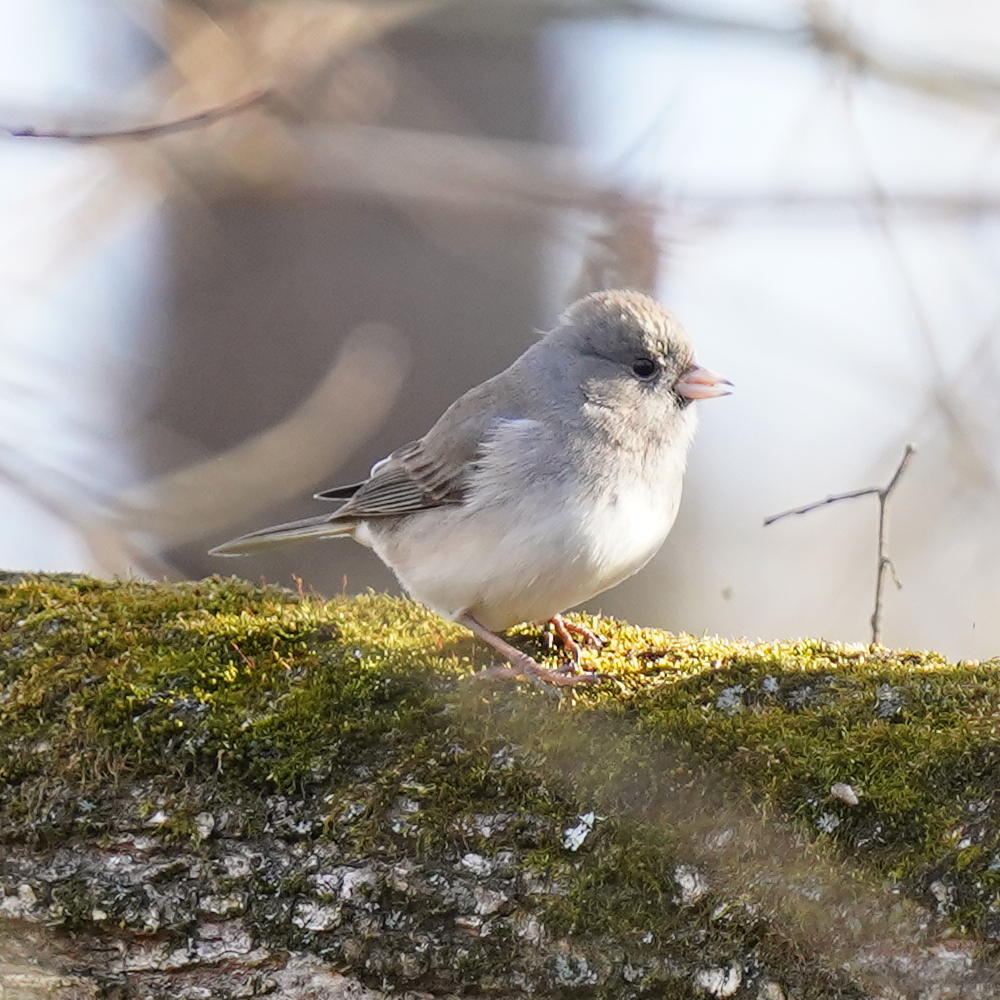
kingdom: Animalia
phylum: Chordata
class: Aves
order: Passeriformes
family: Passerellidae
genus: Junco
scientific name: Junco hyemalis
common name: Dark-eyed junco
